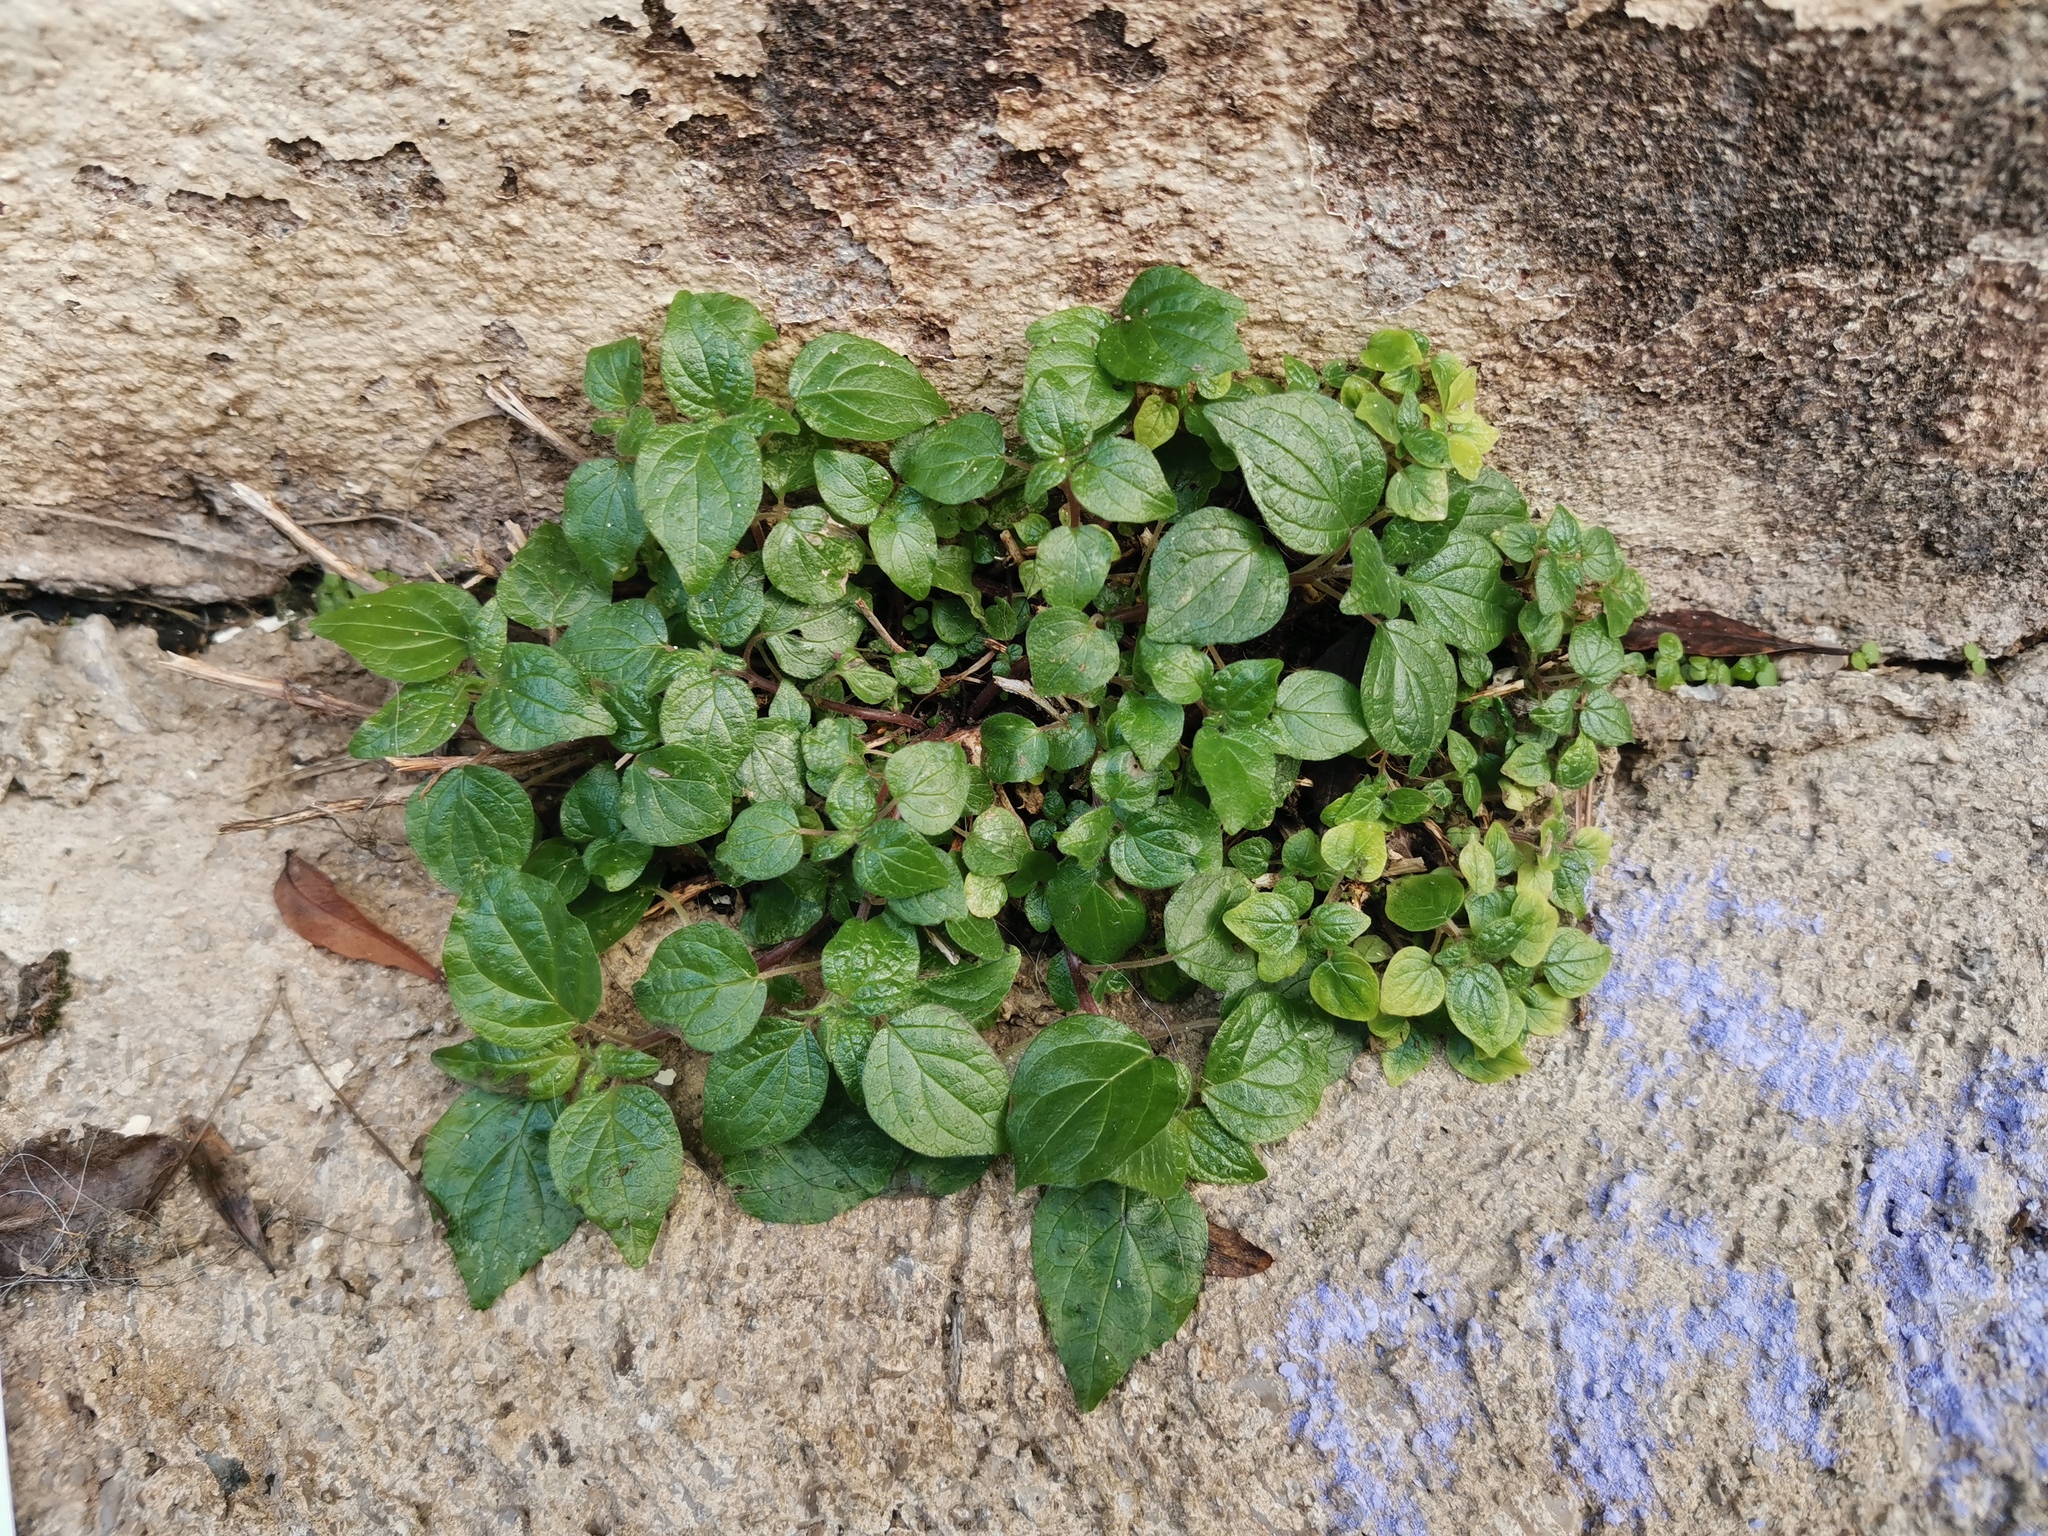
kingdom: Plantae
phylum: Tracheophyta
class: Magnoliopsida
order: Rosales
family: Urticaceae
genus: Parietaria
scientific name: Parietaria judaica
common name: Pellitory-of-the-wall
